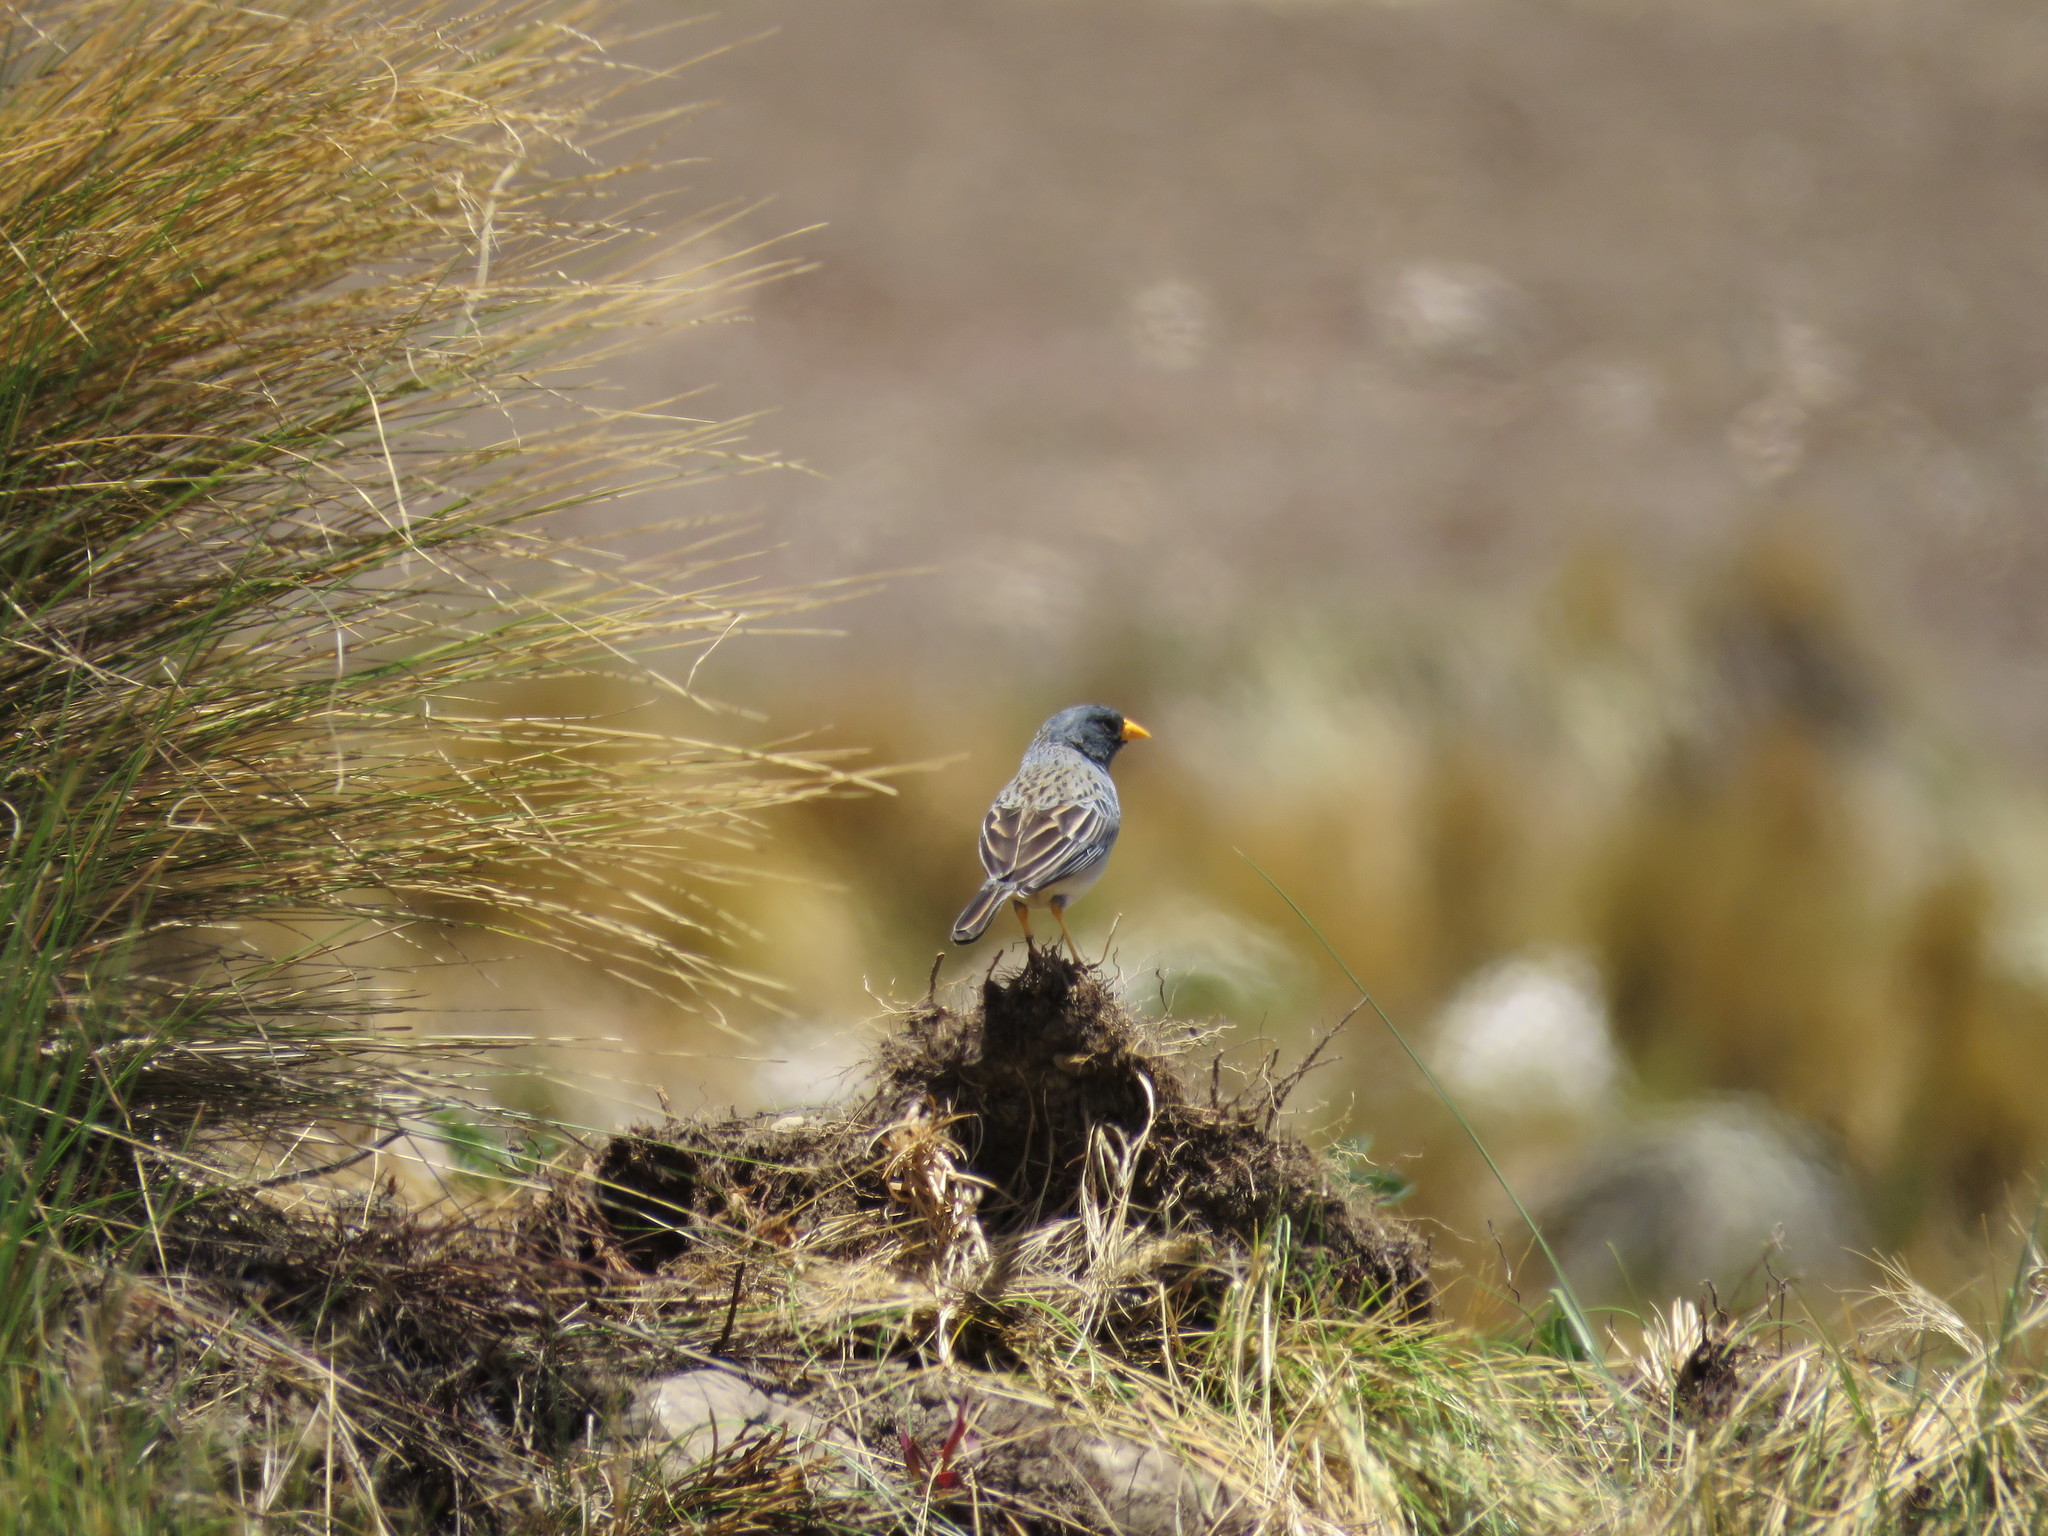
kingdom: Animalia
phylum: Chordata
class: Aves
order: Passeriformes
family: Thraupidae
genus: Porphyrospiza
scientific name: Porphyrospiza alaudina
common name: Band-tailed sierra finch
